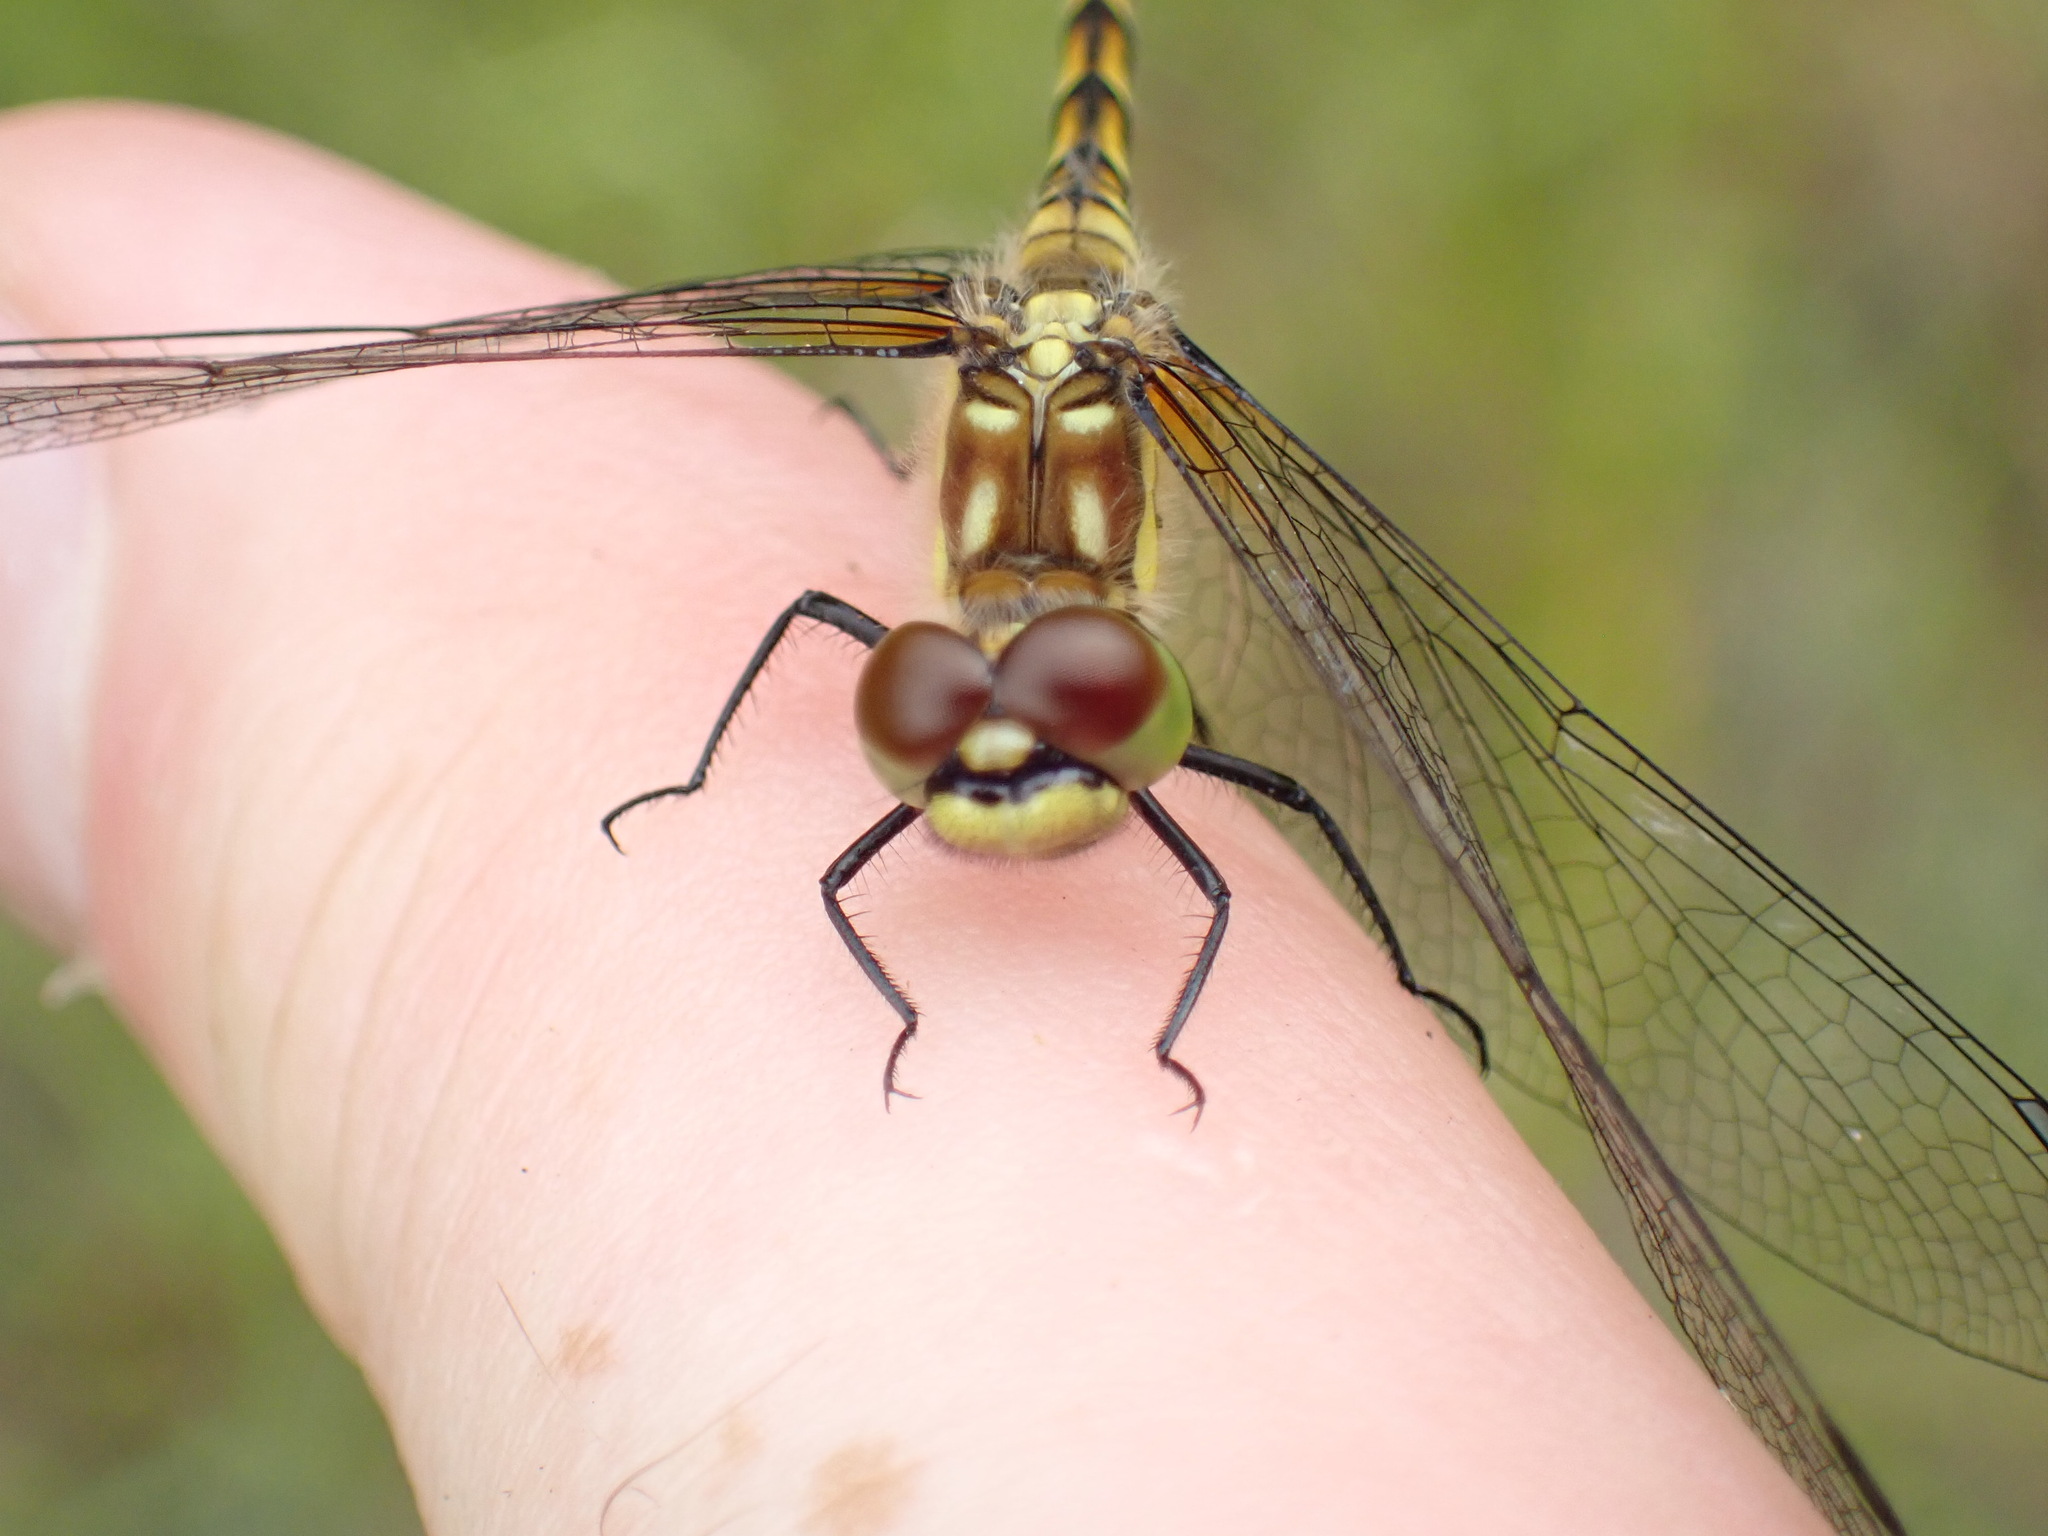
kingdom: Animalia
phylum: Arthropoda
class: Insecta
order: Odonata
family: Libellulidae
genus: Sympetrum
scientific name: Sympetrum danae
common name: Black darter
